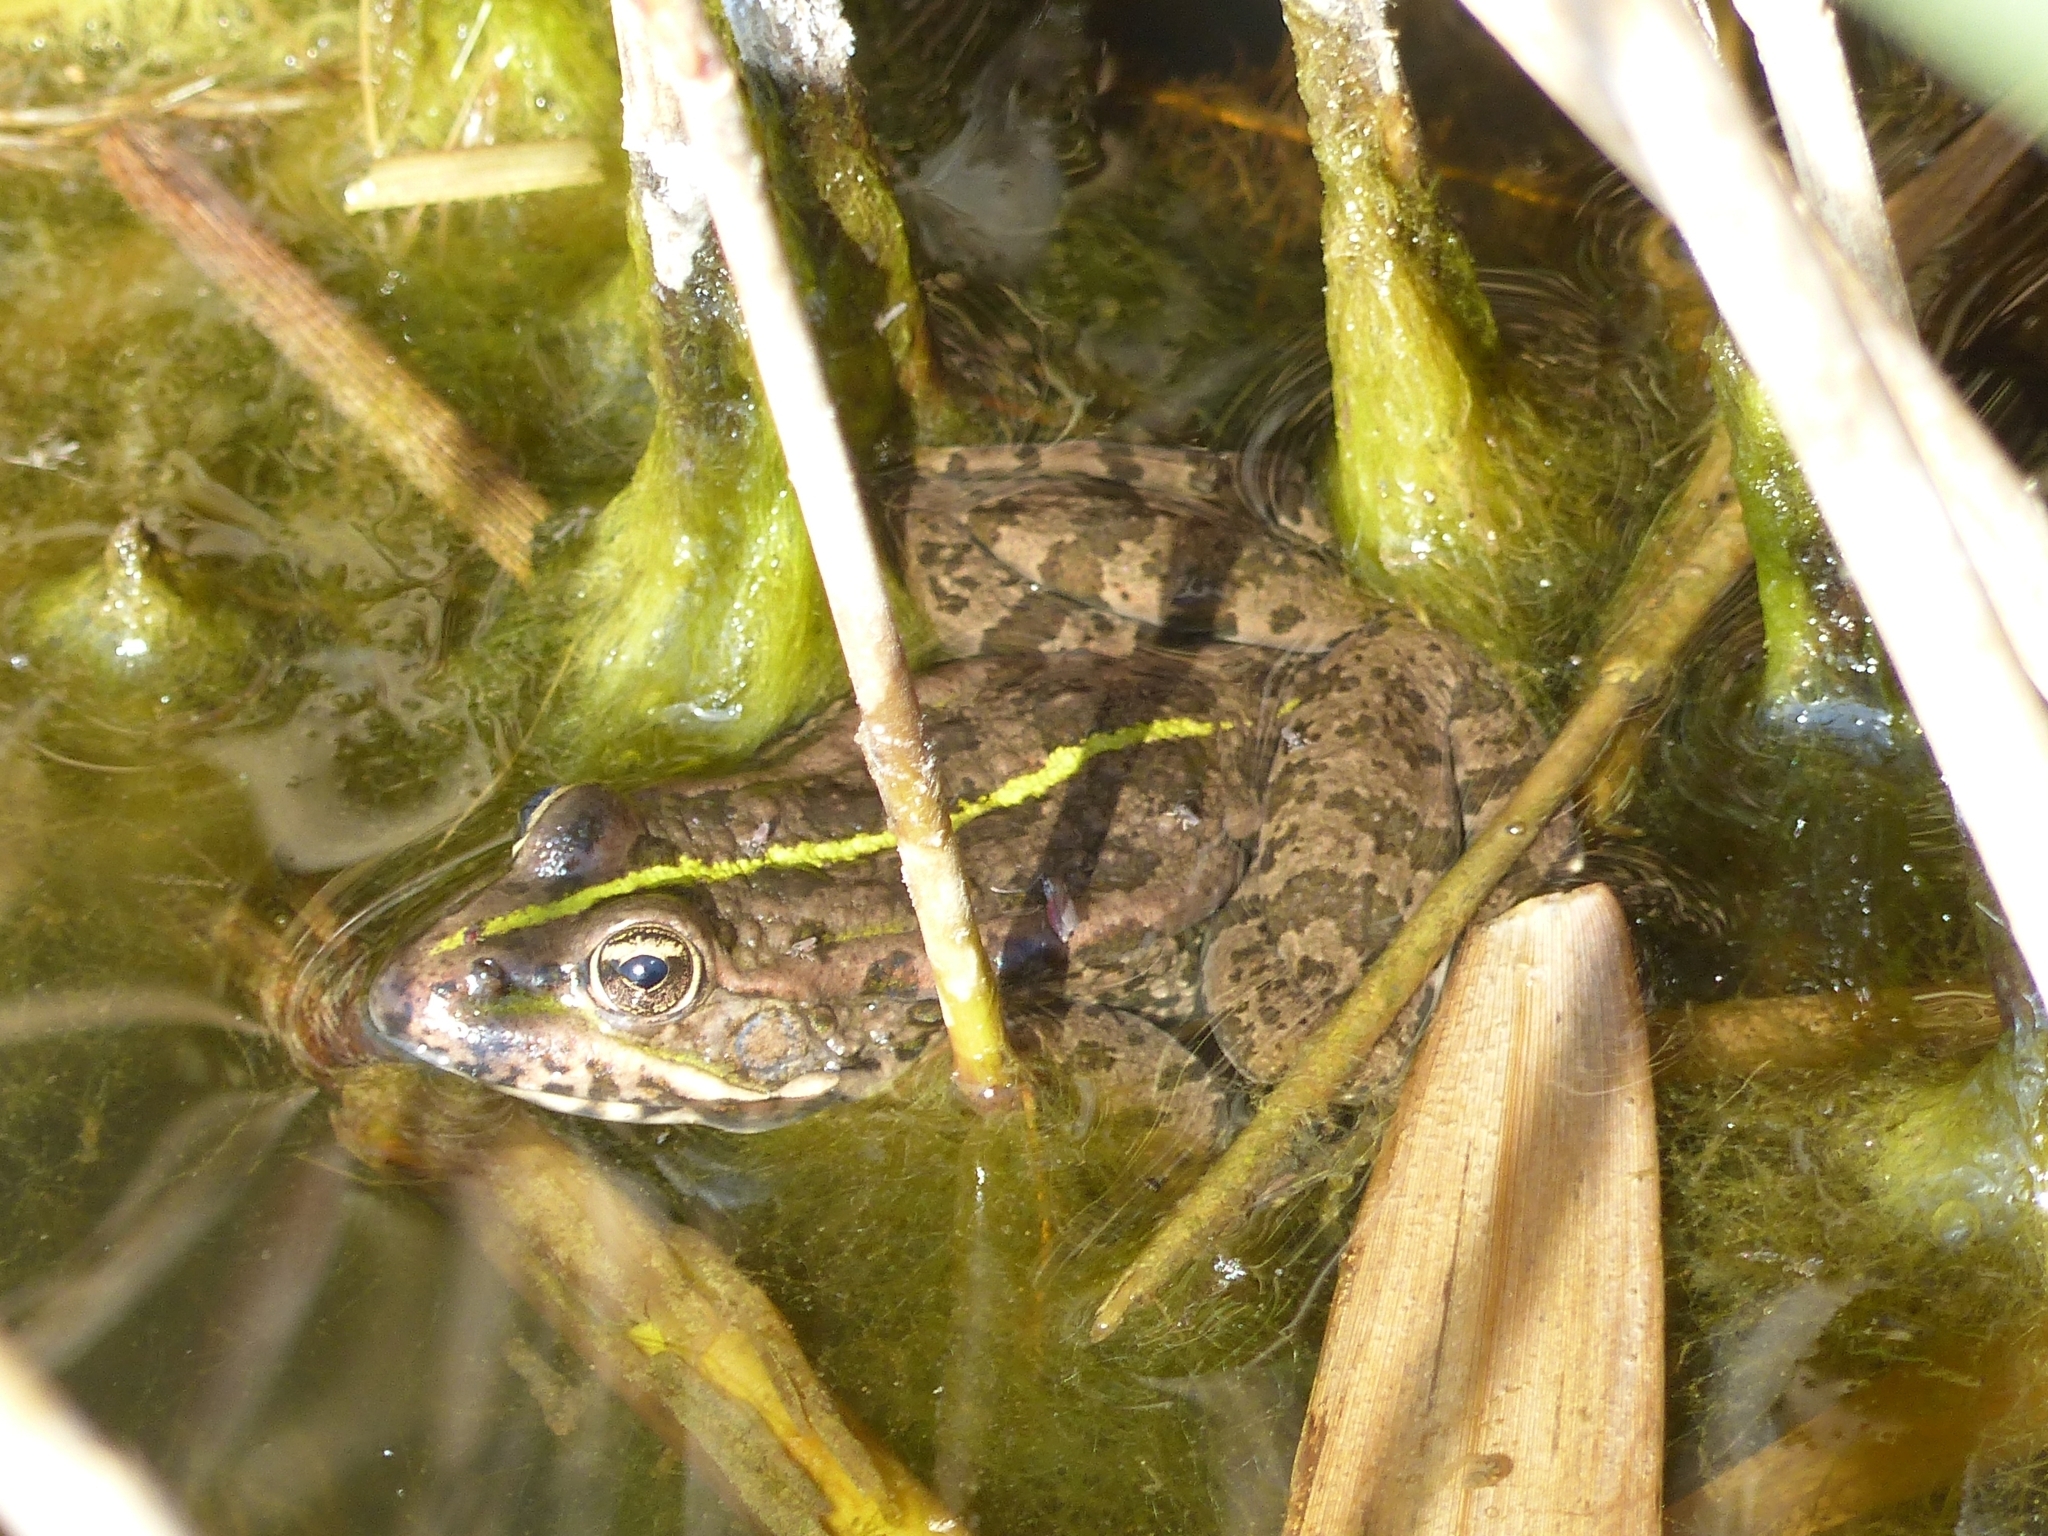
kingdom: Animalia
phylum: Chordata
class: Amphibia
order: Anura
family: Ranidae
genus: Pelophylax
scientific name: Pelophylax ridibundus
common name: Marsh frog
